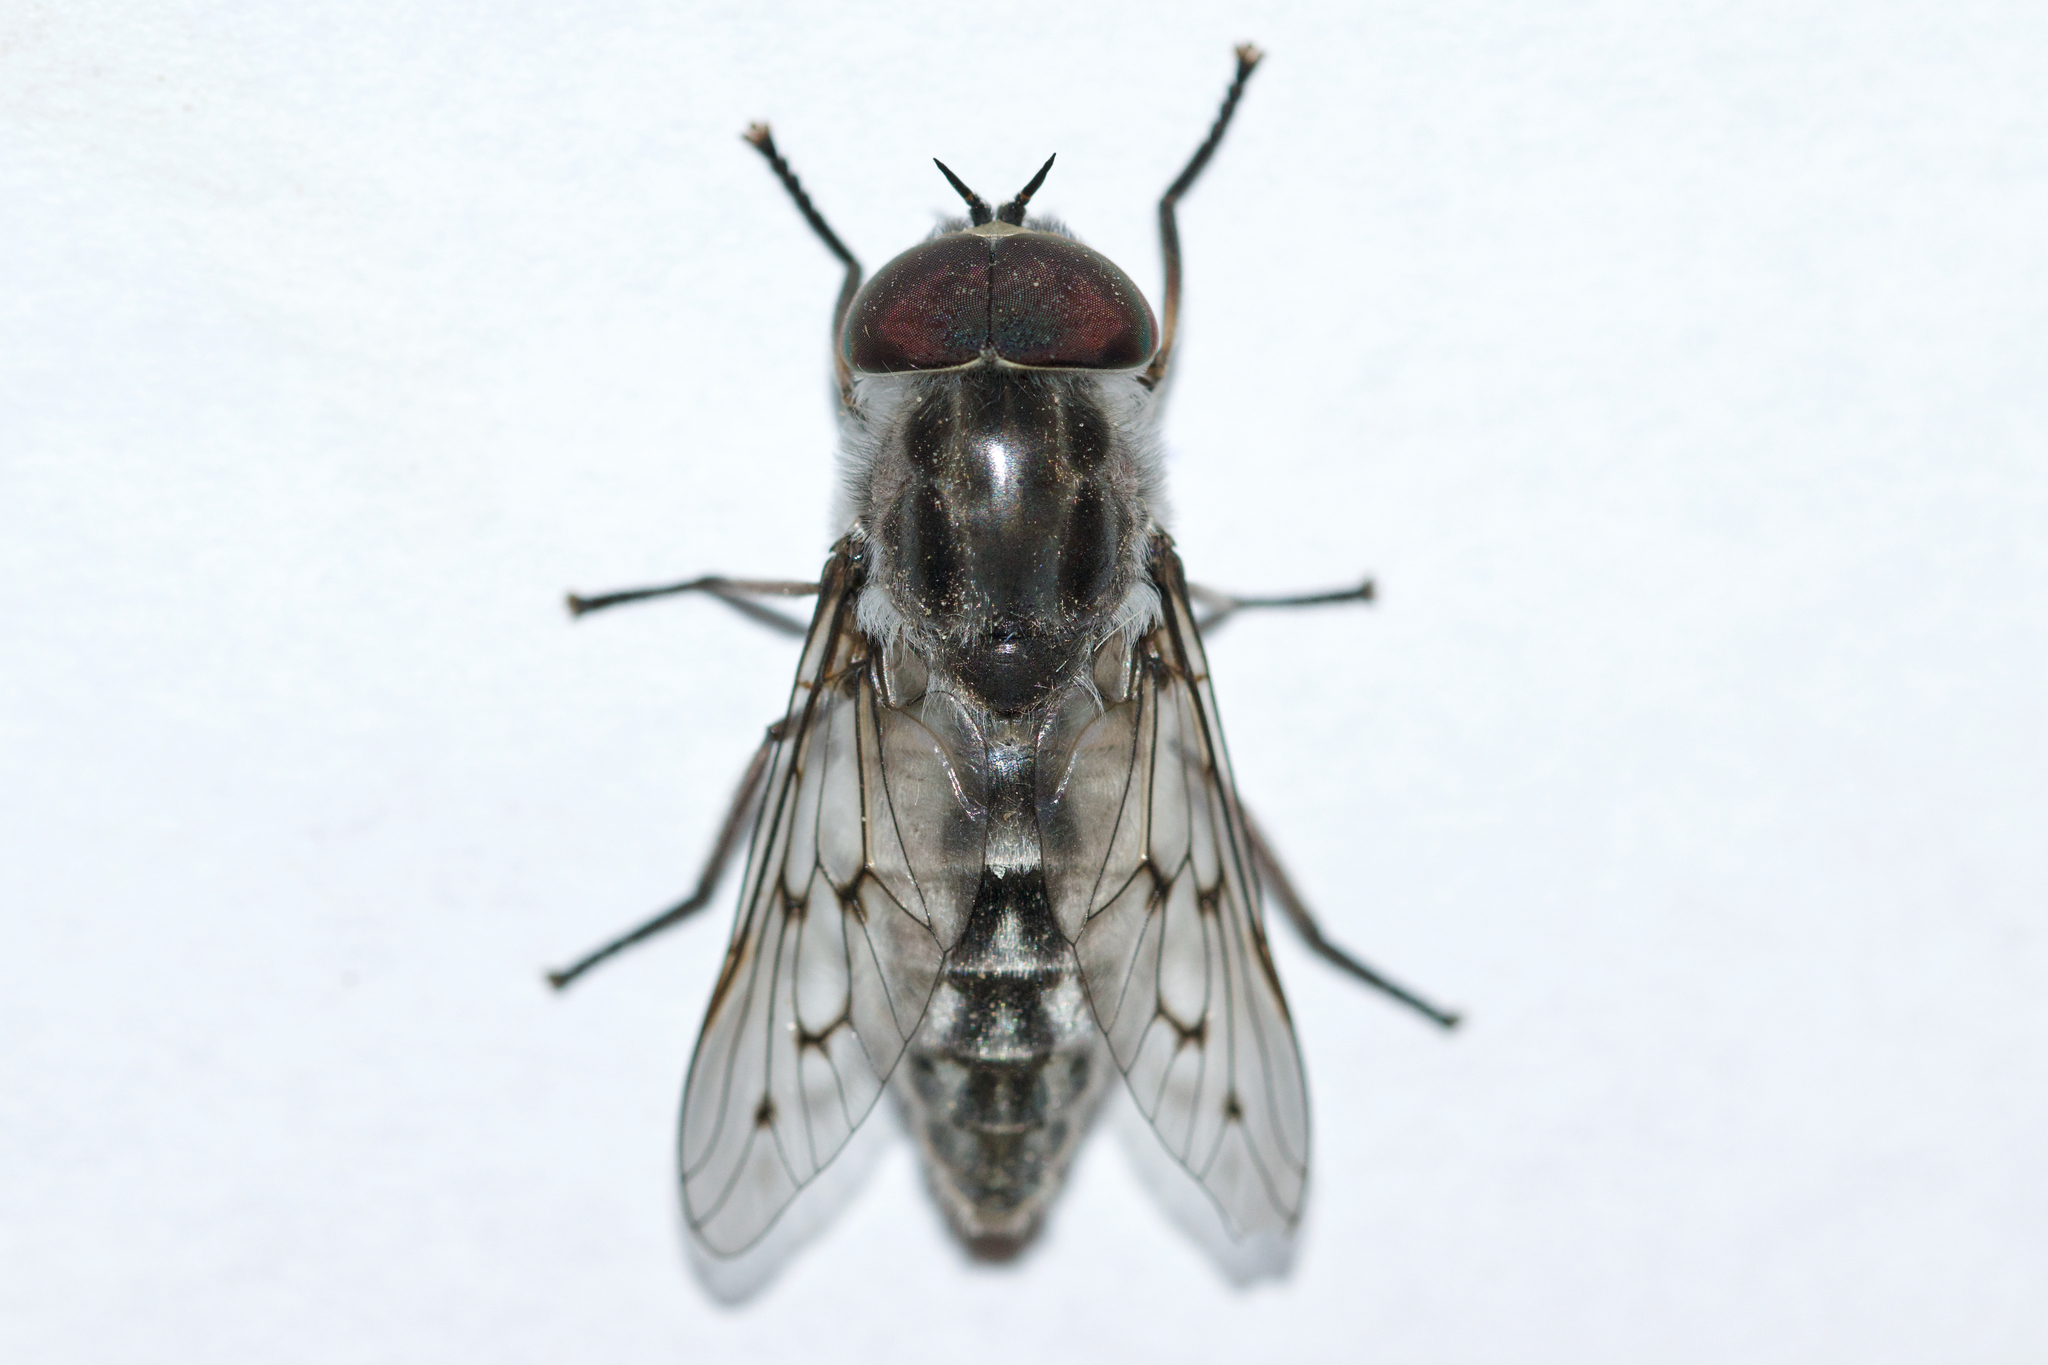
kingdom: Animalia
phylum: Arthropoda
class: Insecta
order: Diptera
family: Tabanidae
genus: Tabanus
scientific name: Tabanus reinwardtii
